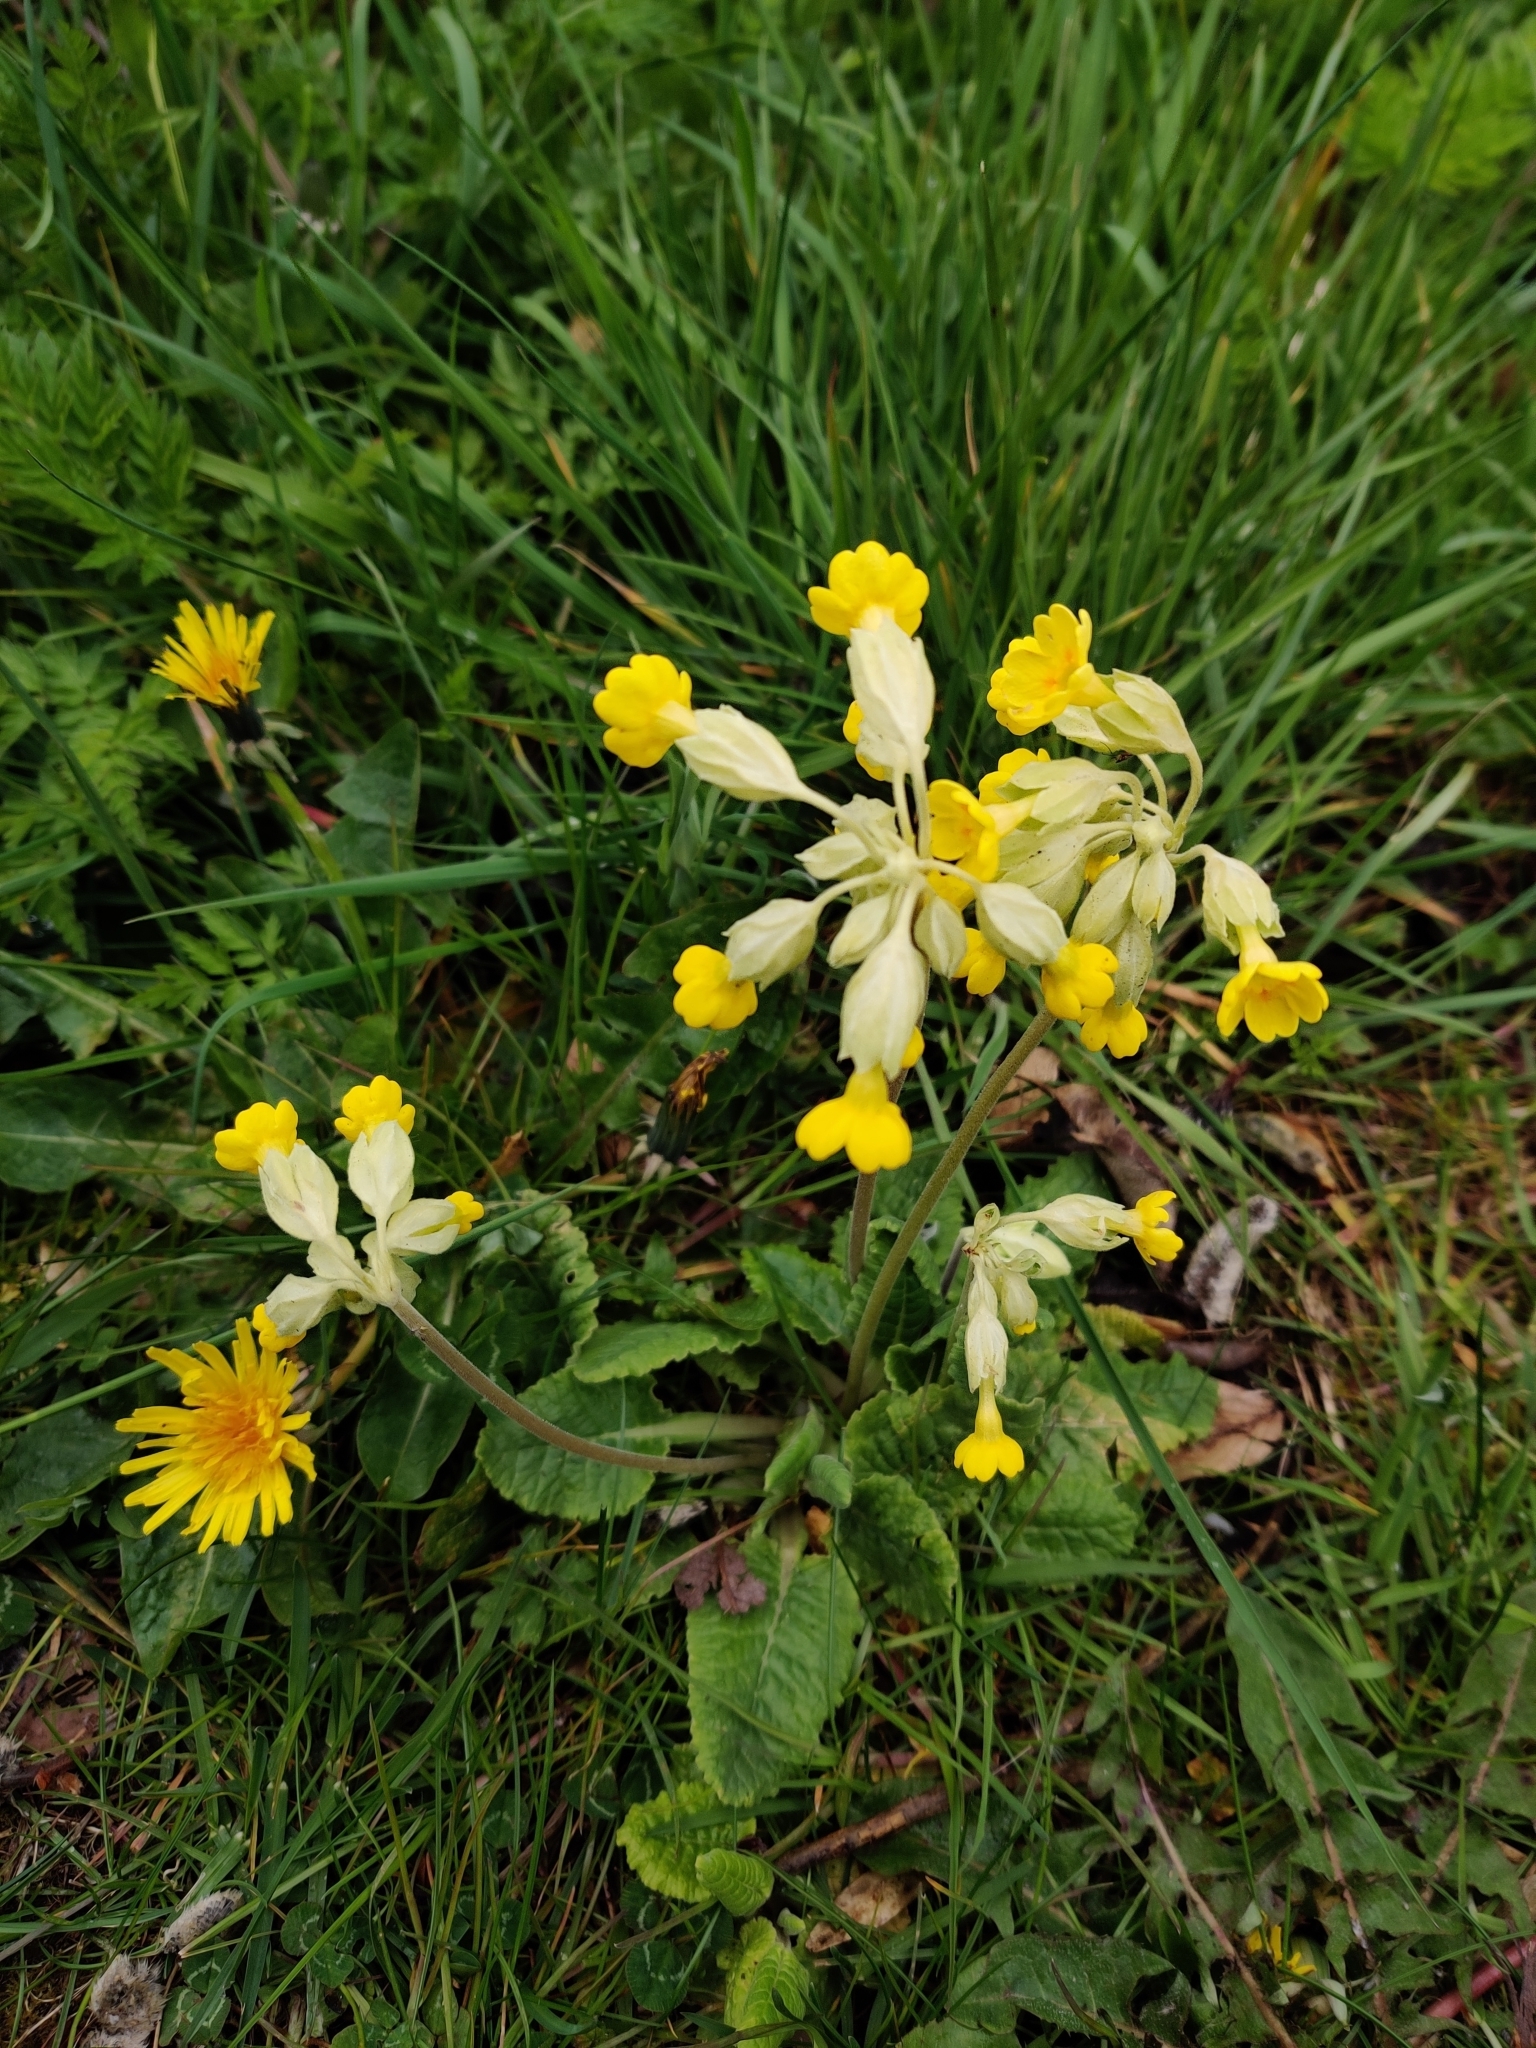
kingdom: Plantae
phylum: Tracheophyta
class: Magnoliopsida
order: Ericales
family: Primulaceae
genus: Primula
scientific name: Primula veris
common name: Cowslip
